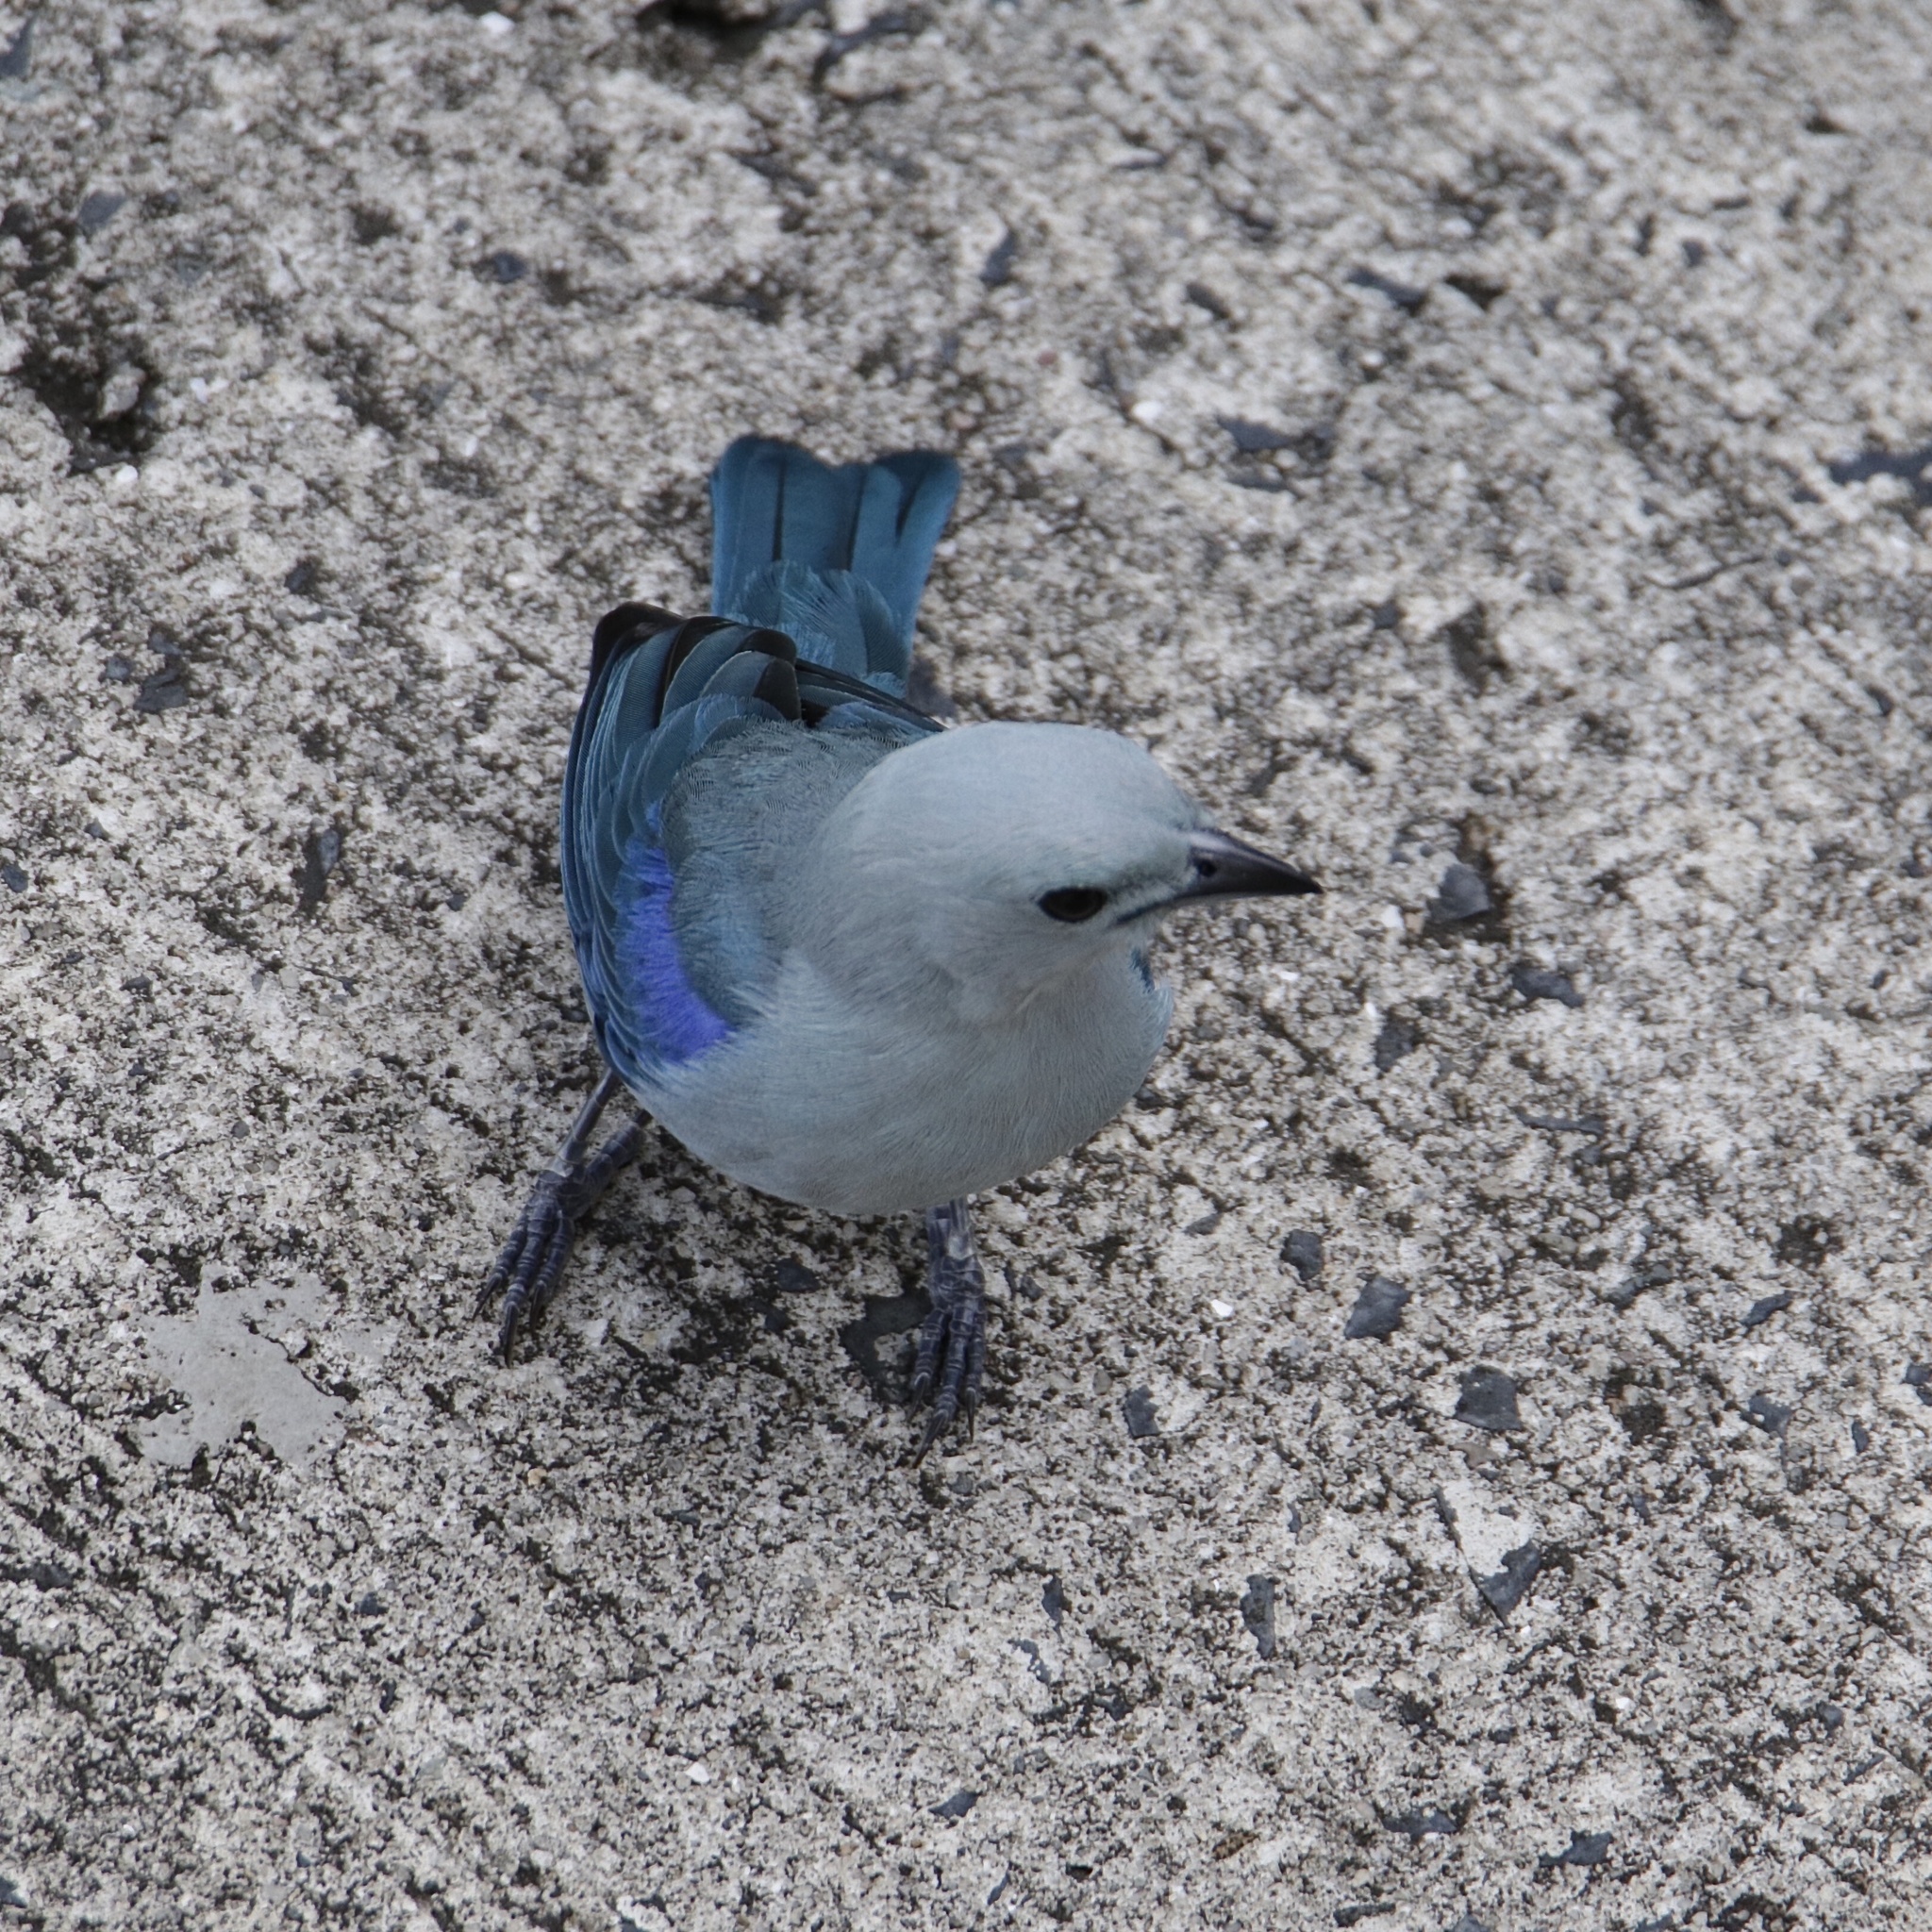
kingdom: Animalia
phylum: Chordata
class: Aves
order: Passeriformes
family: Thraupidae
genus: Thraupis
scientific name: Thraupis episcopus
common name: Blue-grey tanager
